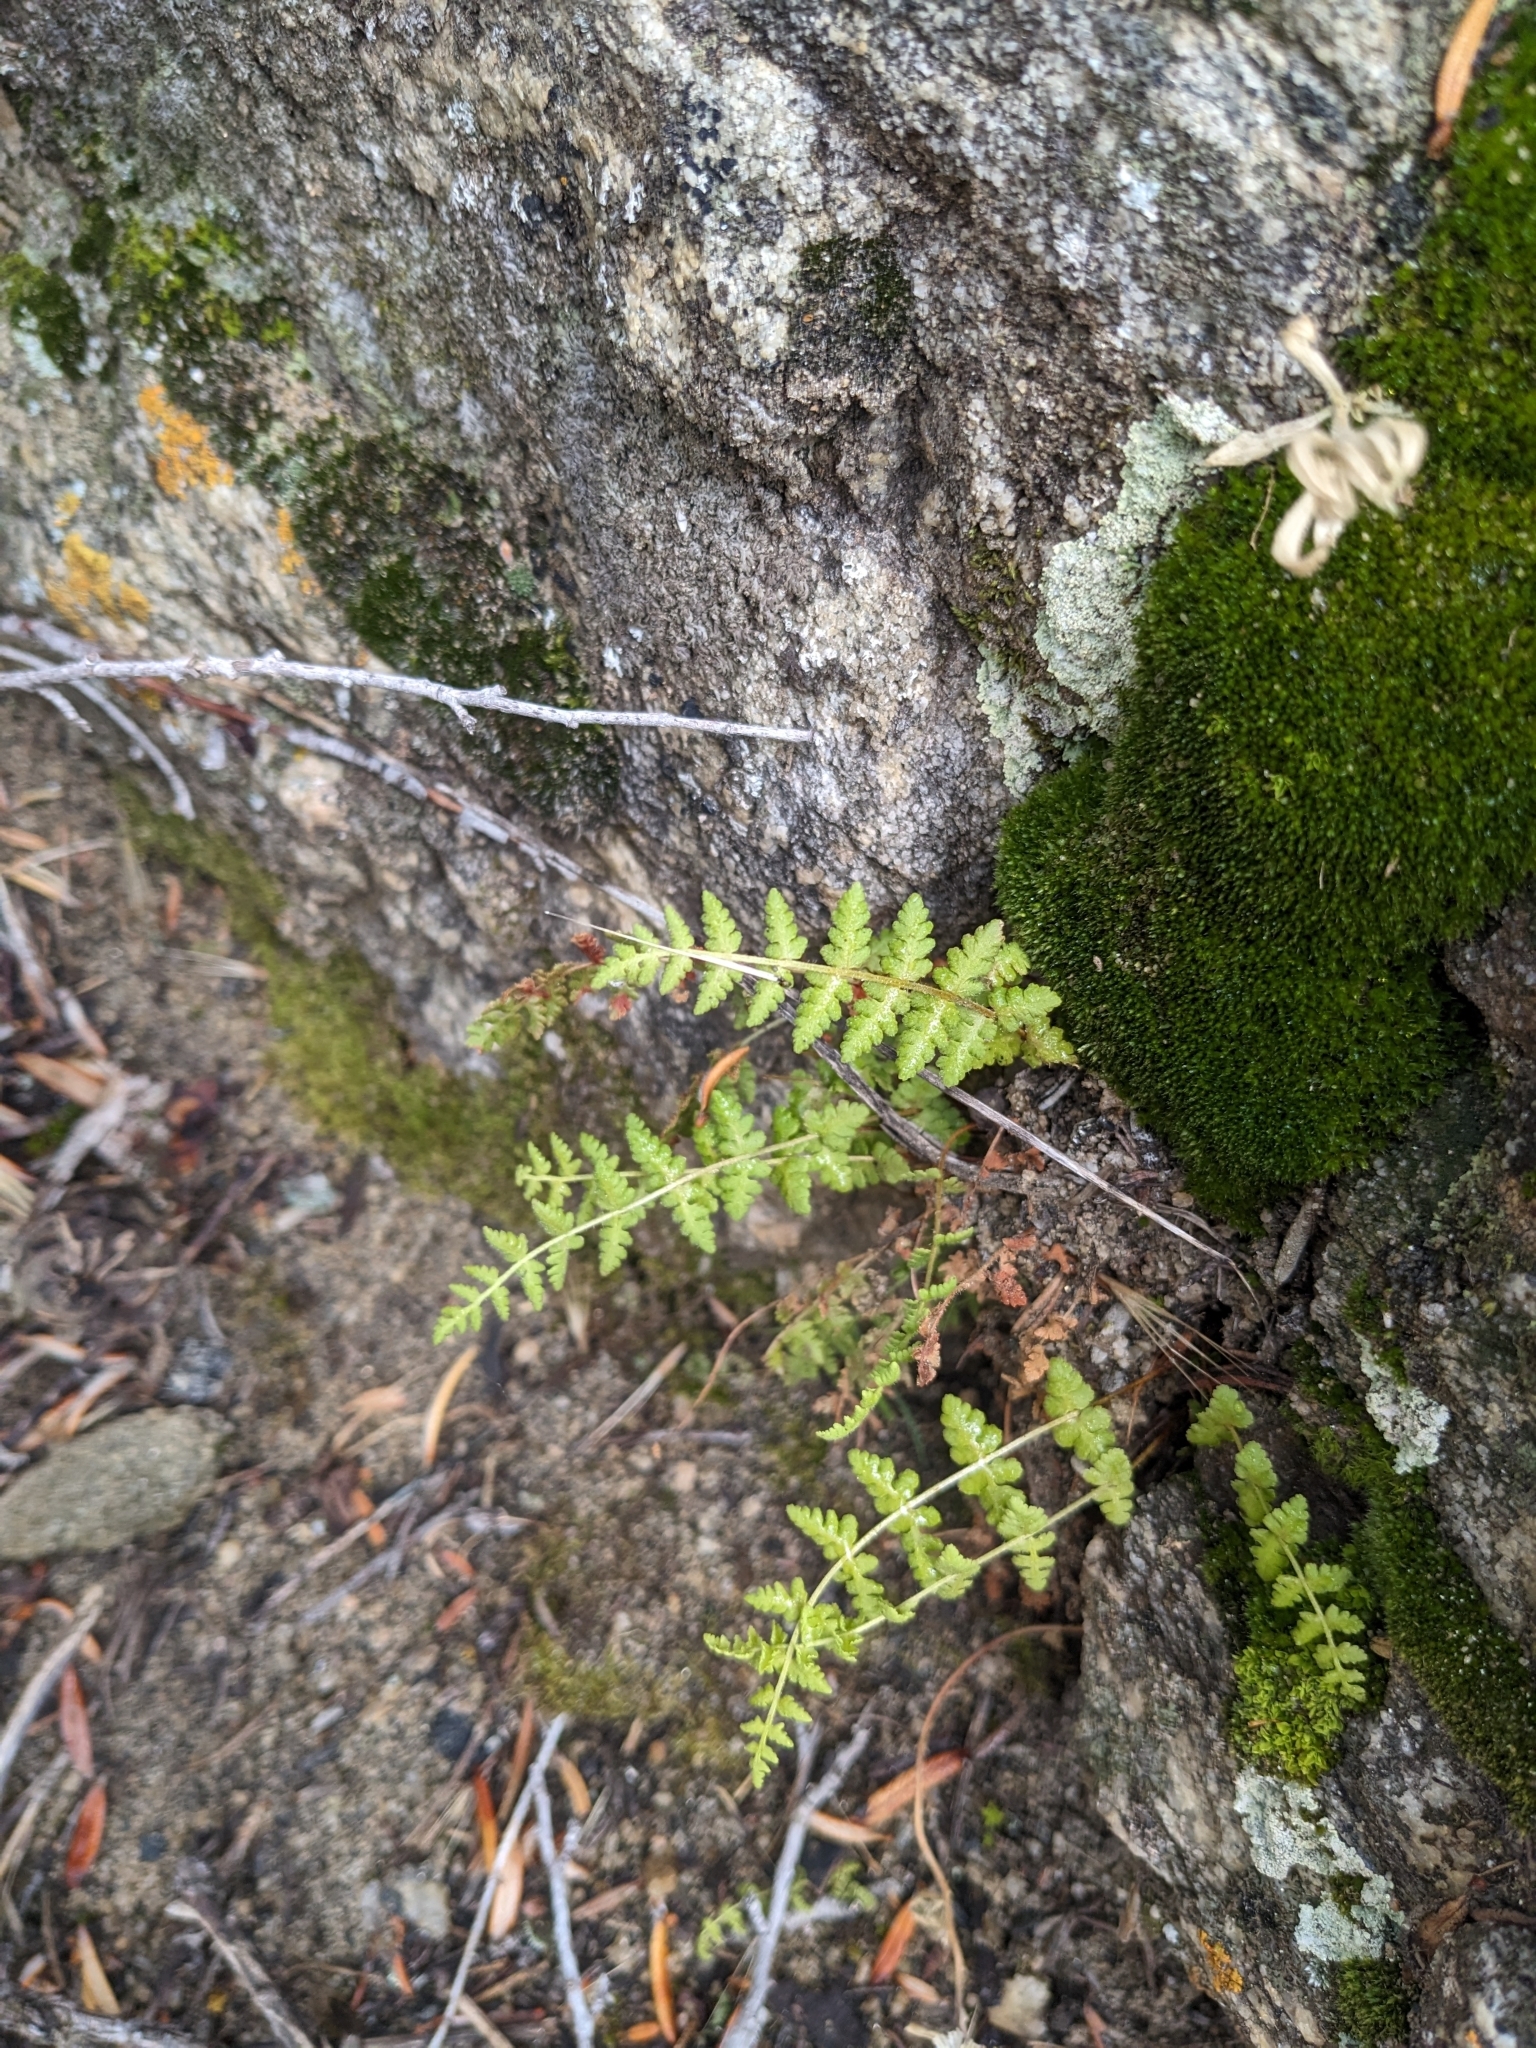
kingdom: Plantae
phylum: Tracheophyta
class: Polypodiopsida
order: Polypodiales
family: Woodsiaceae
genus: Physematium
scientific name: Physematium scopulinum
